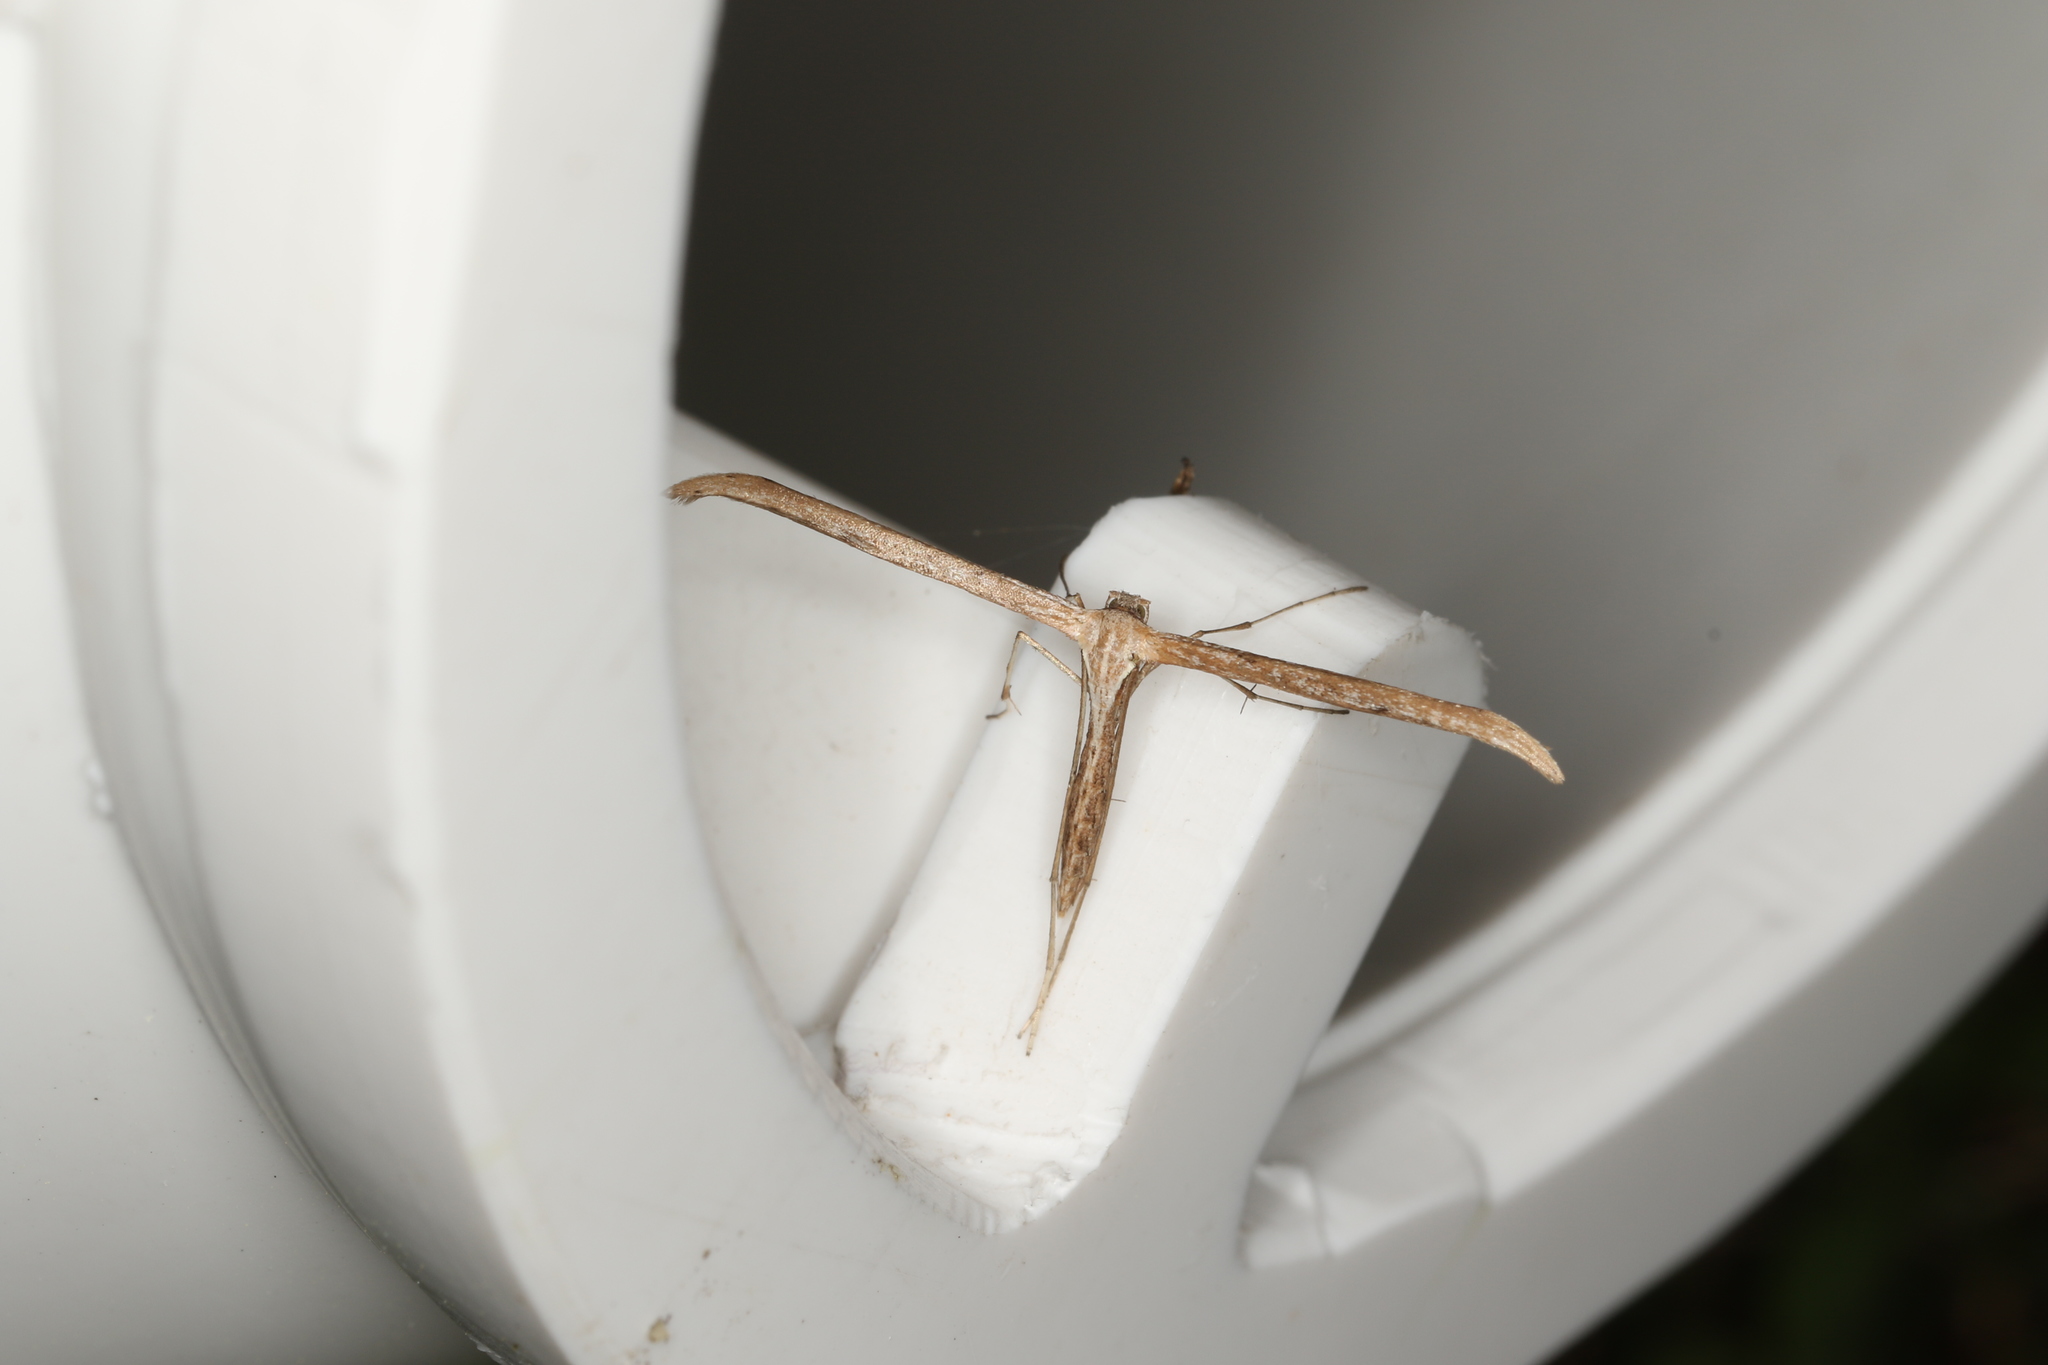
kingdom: Animalia
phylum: Arthropoda
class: Insecta
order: Lepidoptera
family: Pterophoridae
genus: Emmelina
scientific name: Emmelina monodactyla
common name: Common plume
